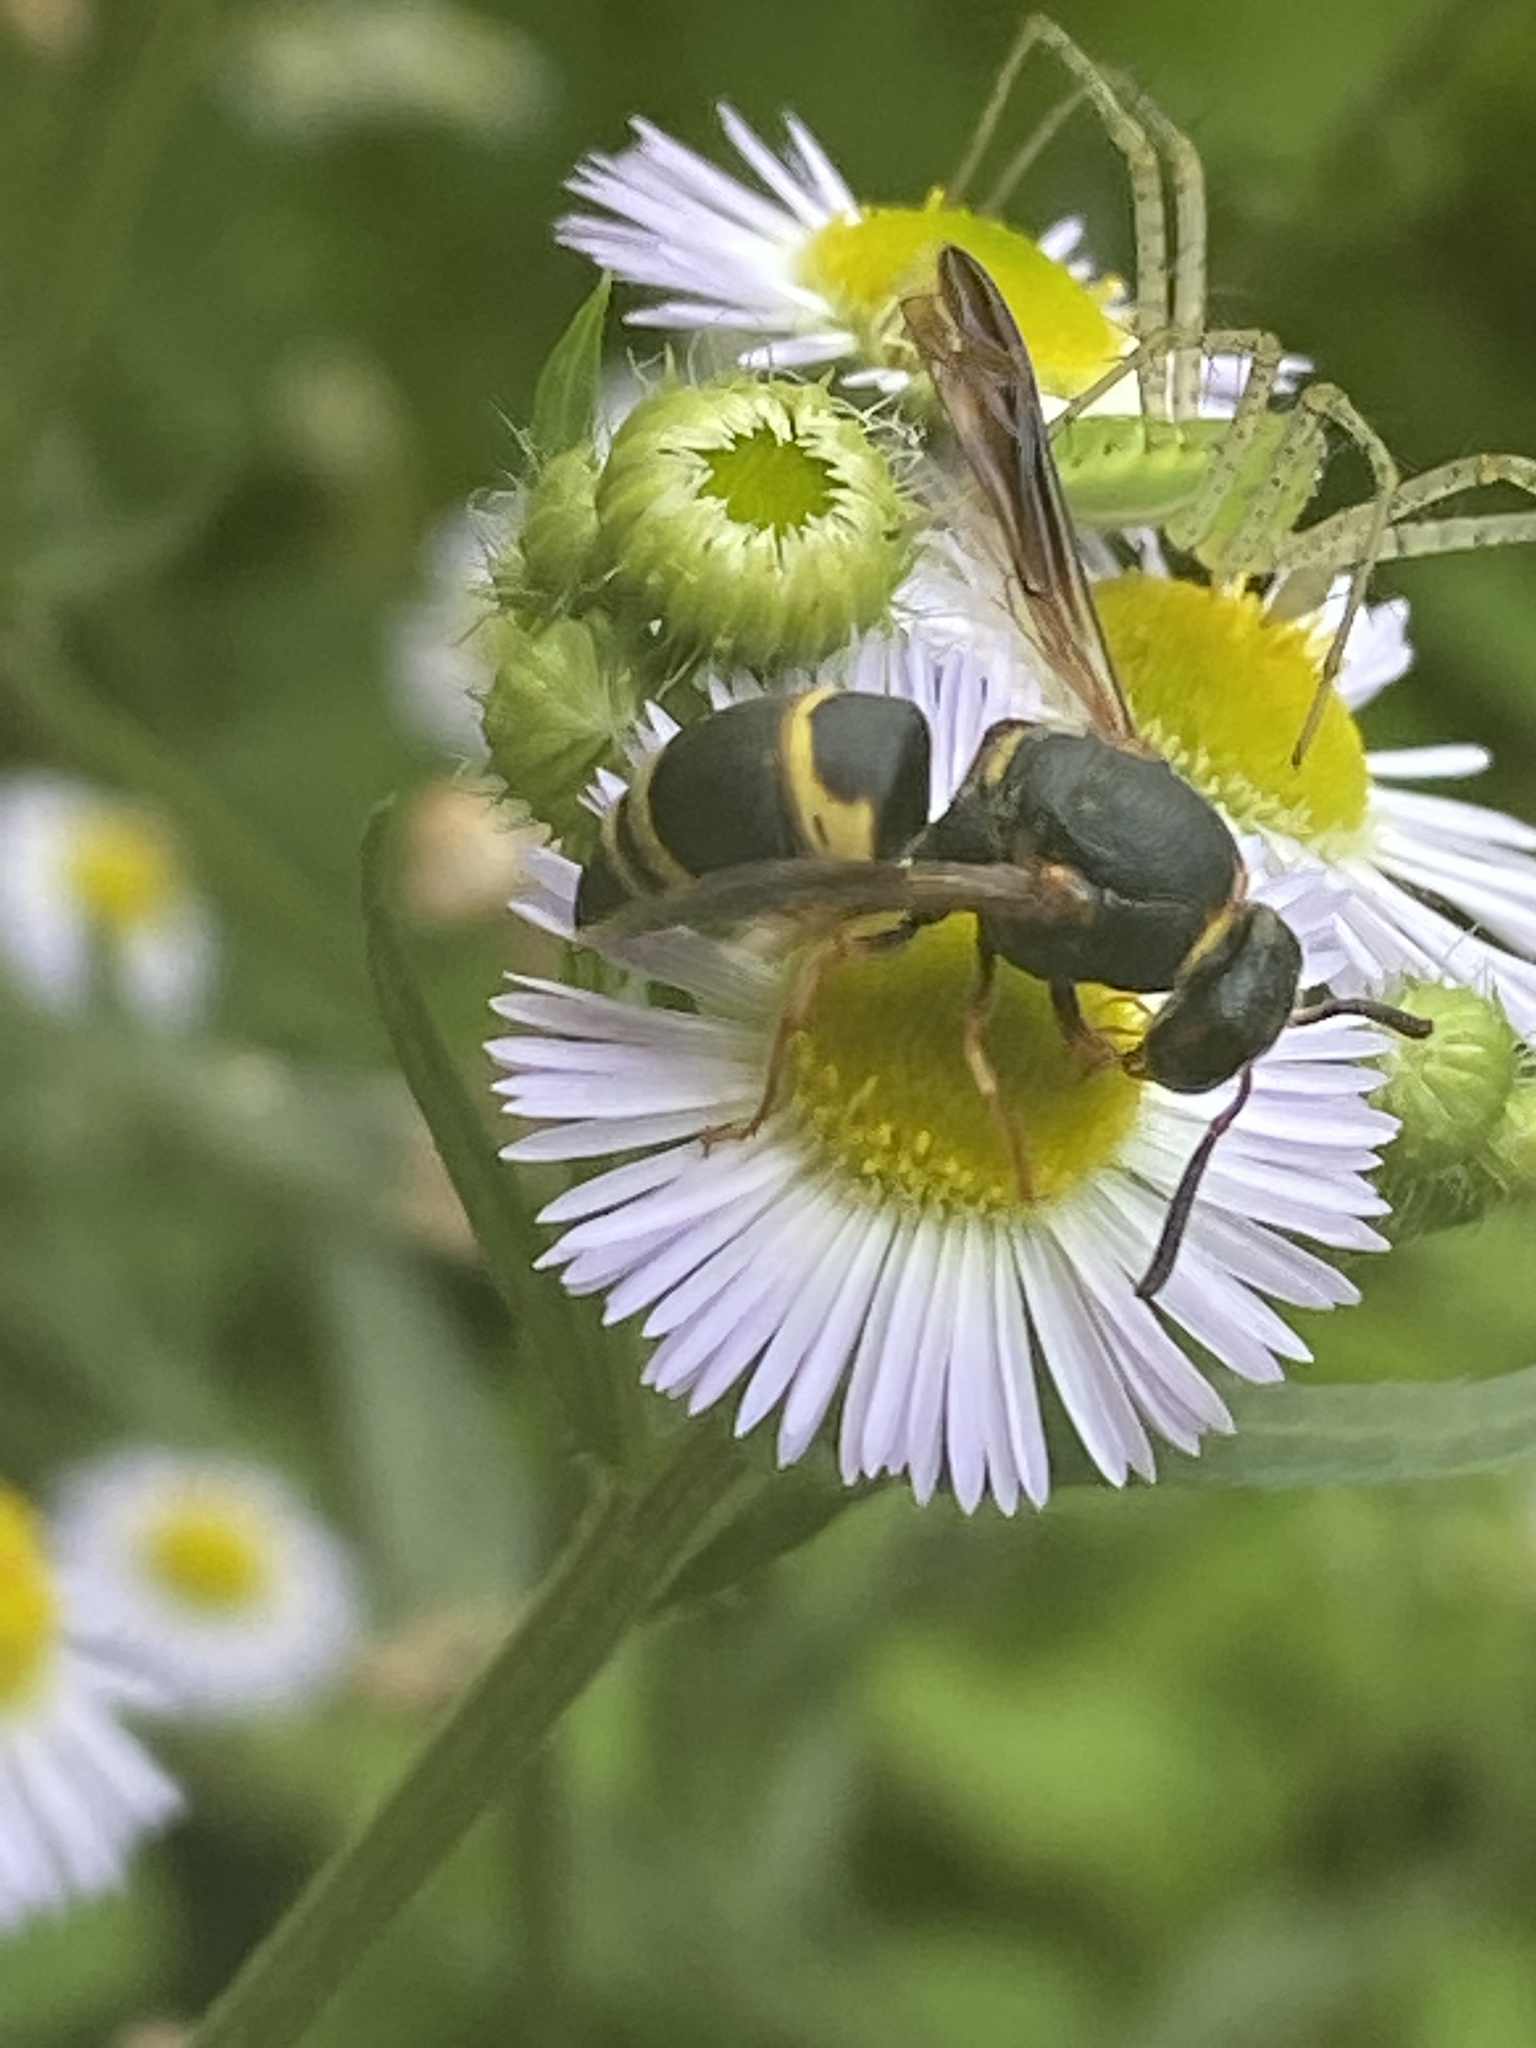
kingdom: Animalia
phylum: Arthropoda
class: Insecta
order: Hymenoptera
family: Eumenidae
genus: Euodynerus
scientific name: Euodynerus hidalgo
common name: Wasp
